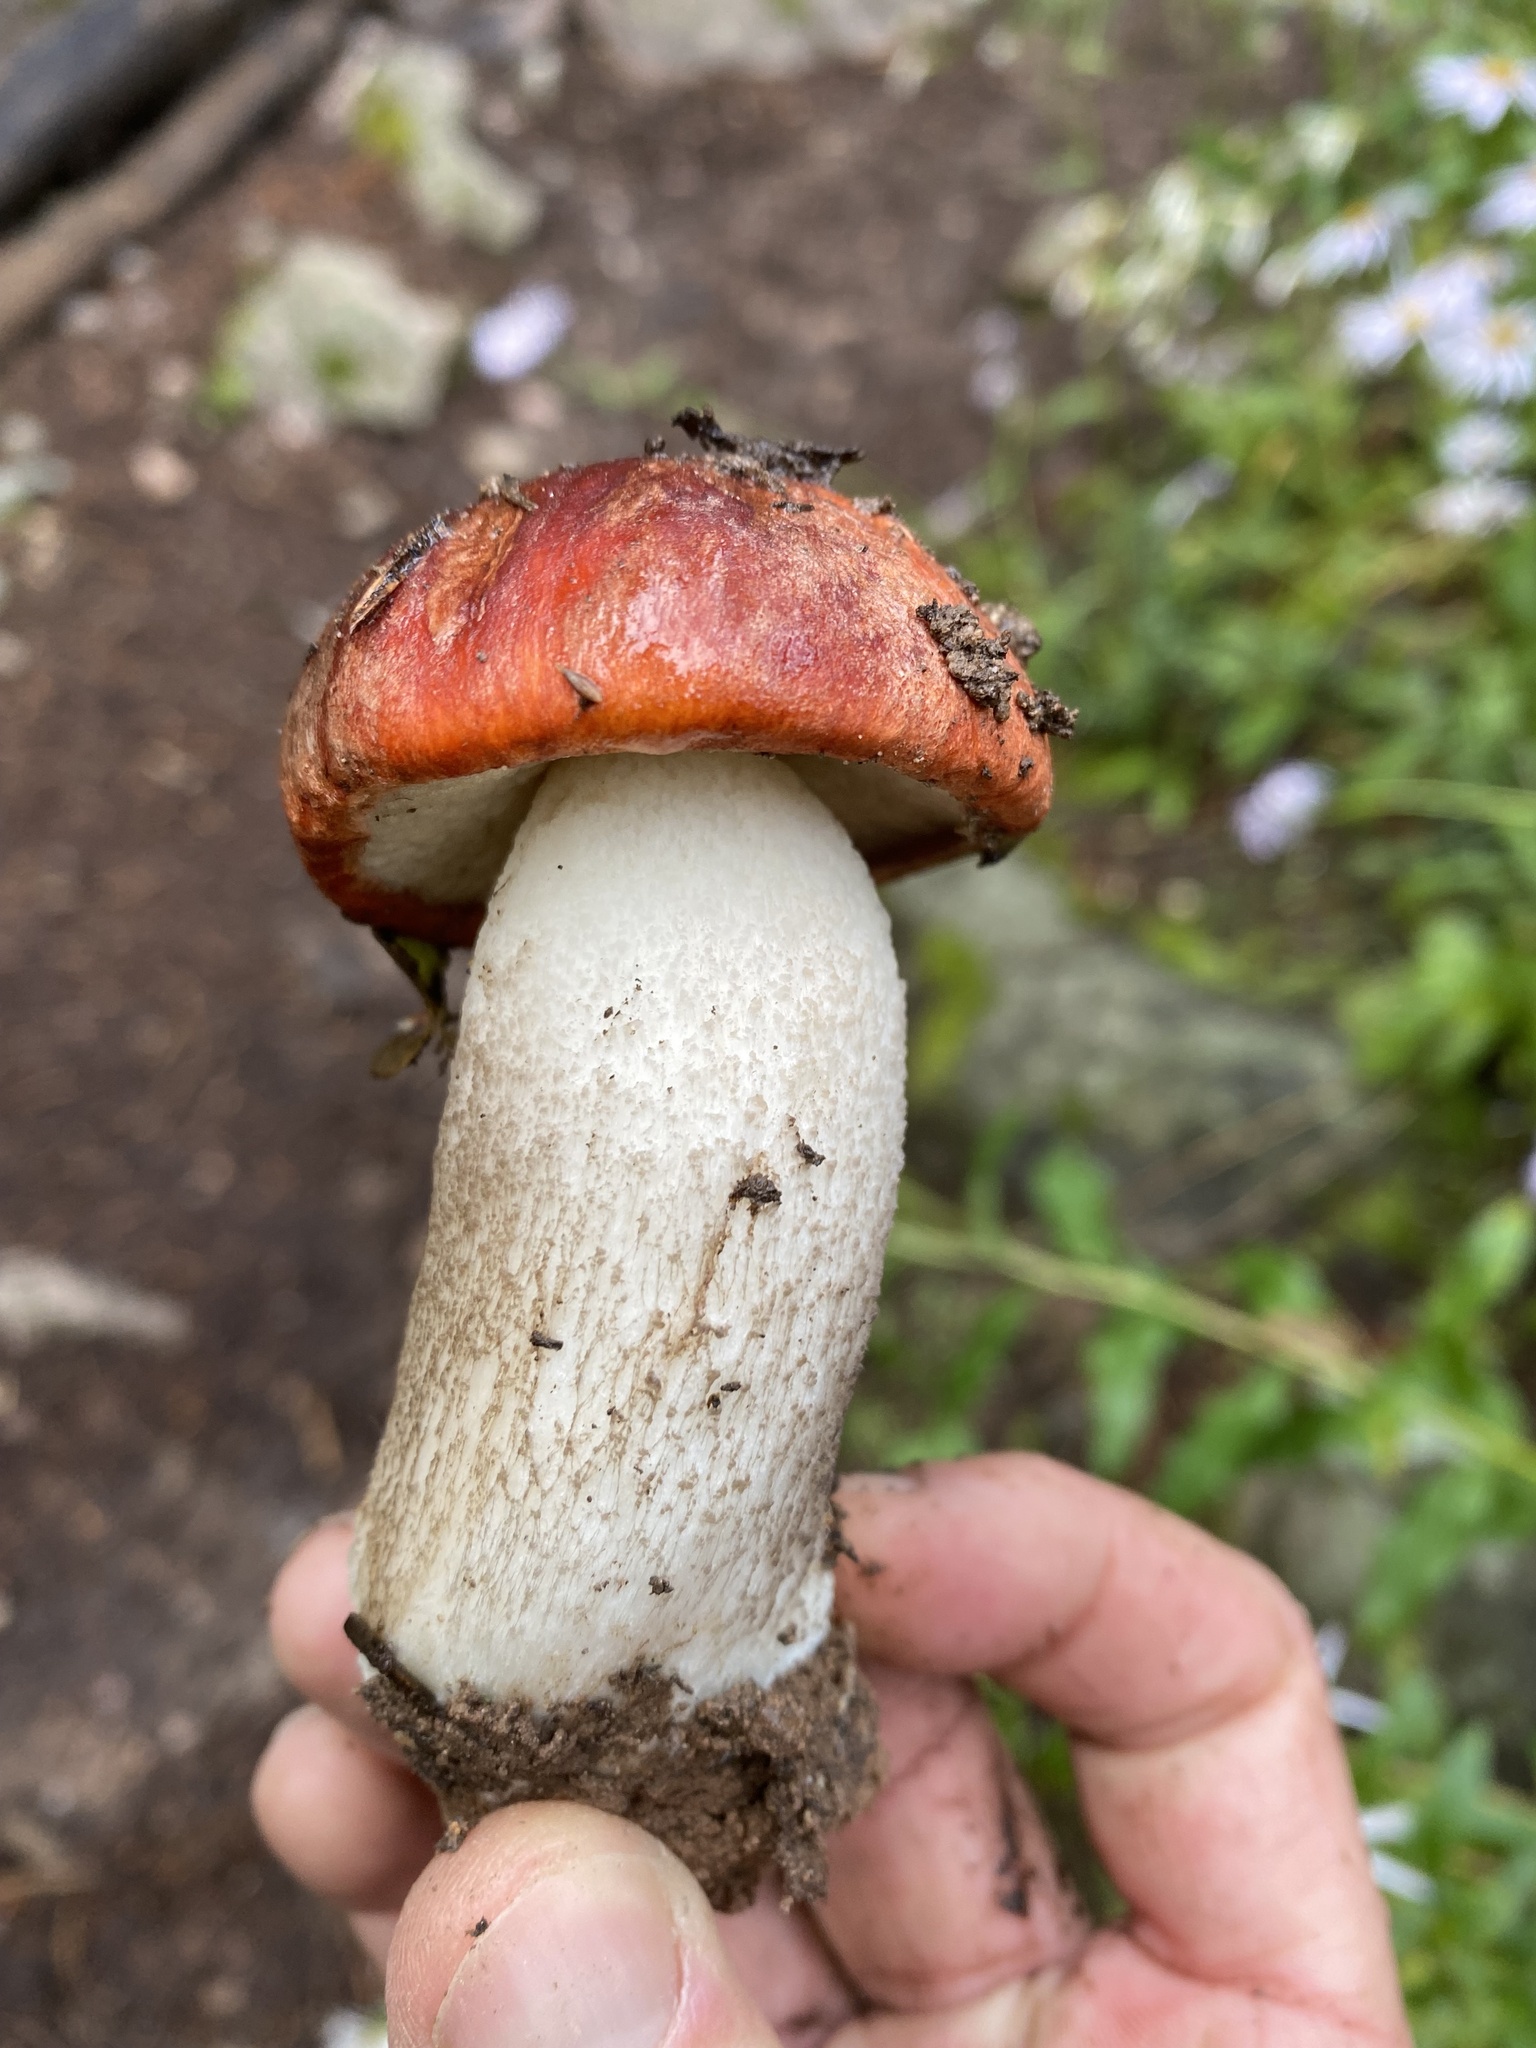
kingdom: Fungi
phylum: Basidiomycota
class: Agaricomycetes
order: Boletales
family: Boletaceae
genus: Leccinum
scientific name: Leccinum aurantiacum
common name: Orange bolete
